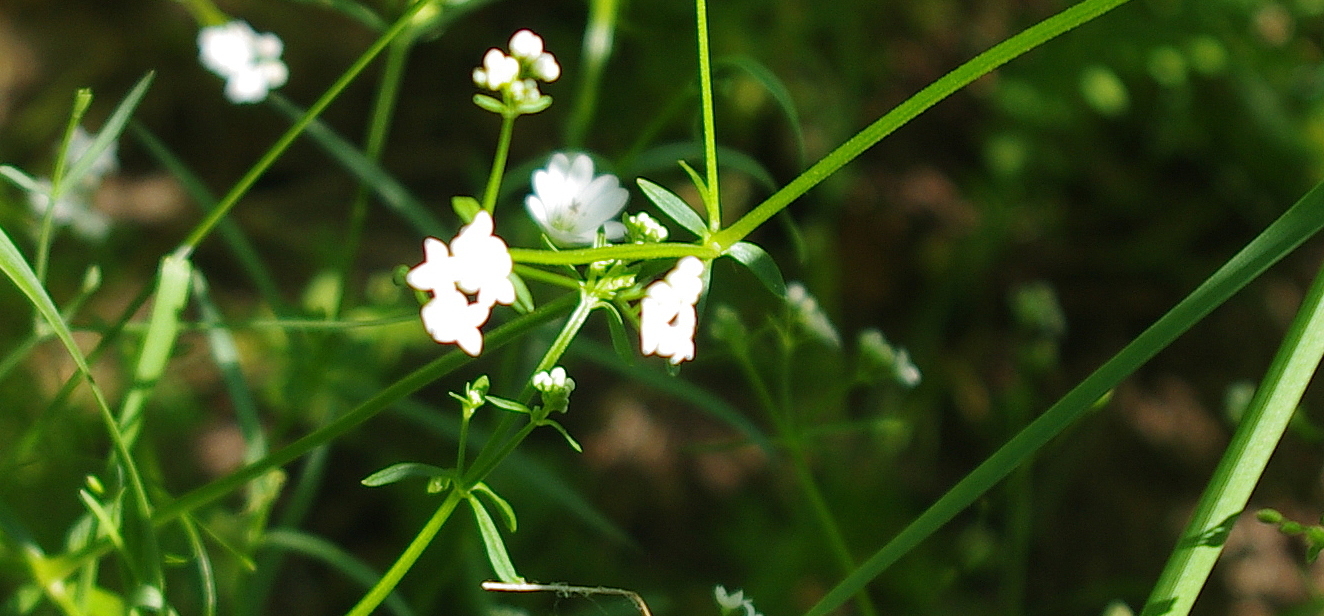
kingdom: Plantae
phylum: Tracheophyta
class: Magnoliopsida
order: Gentianales
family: Rubiaceae
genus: Galium
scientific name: Galium palustre
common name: Common marsh-bedstraw
